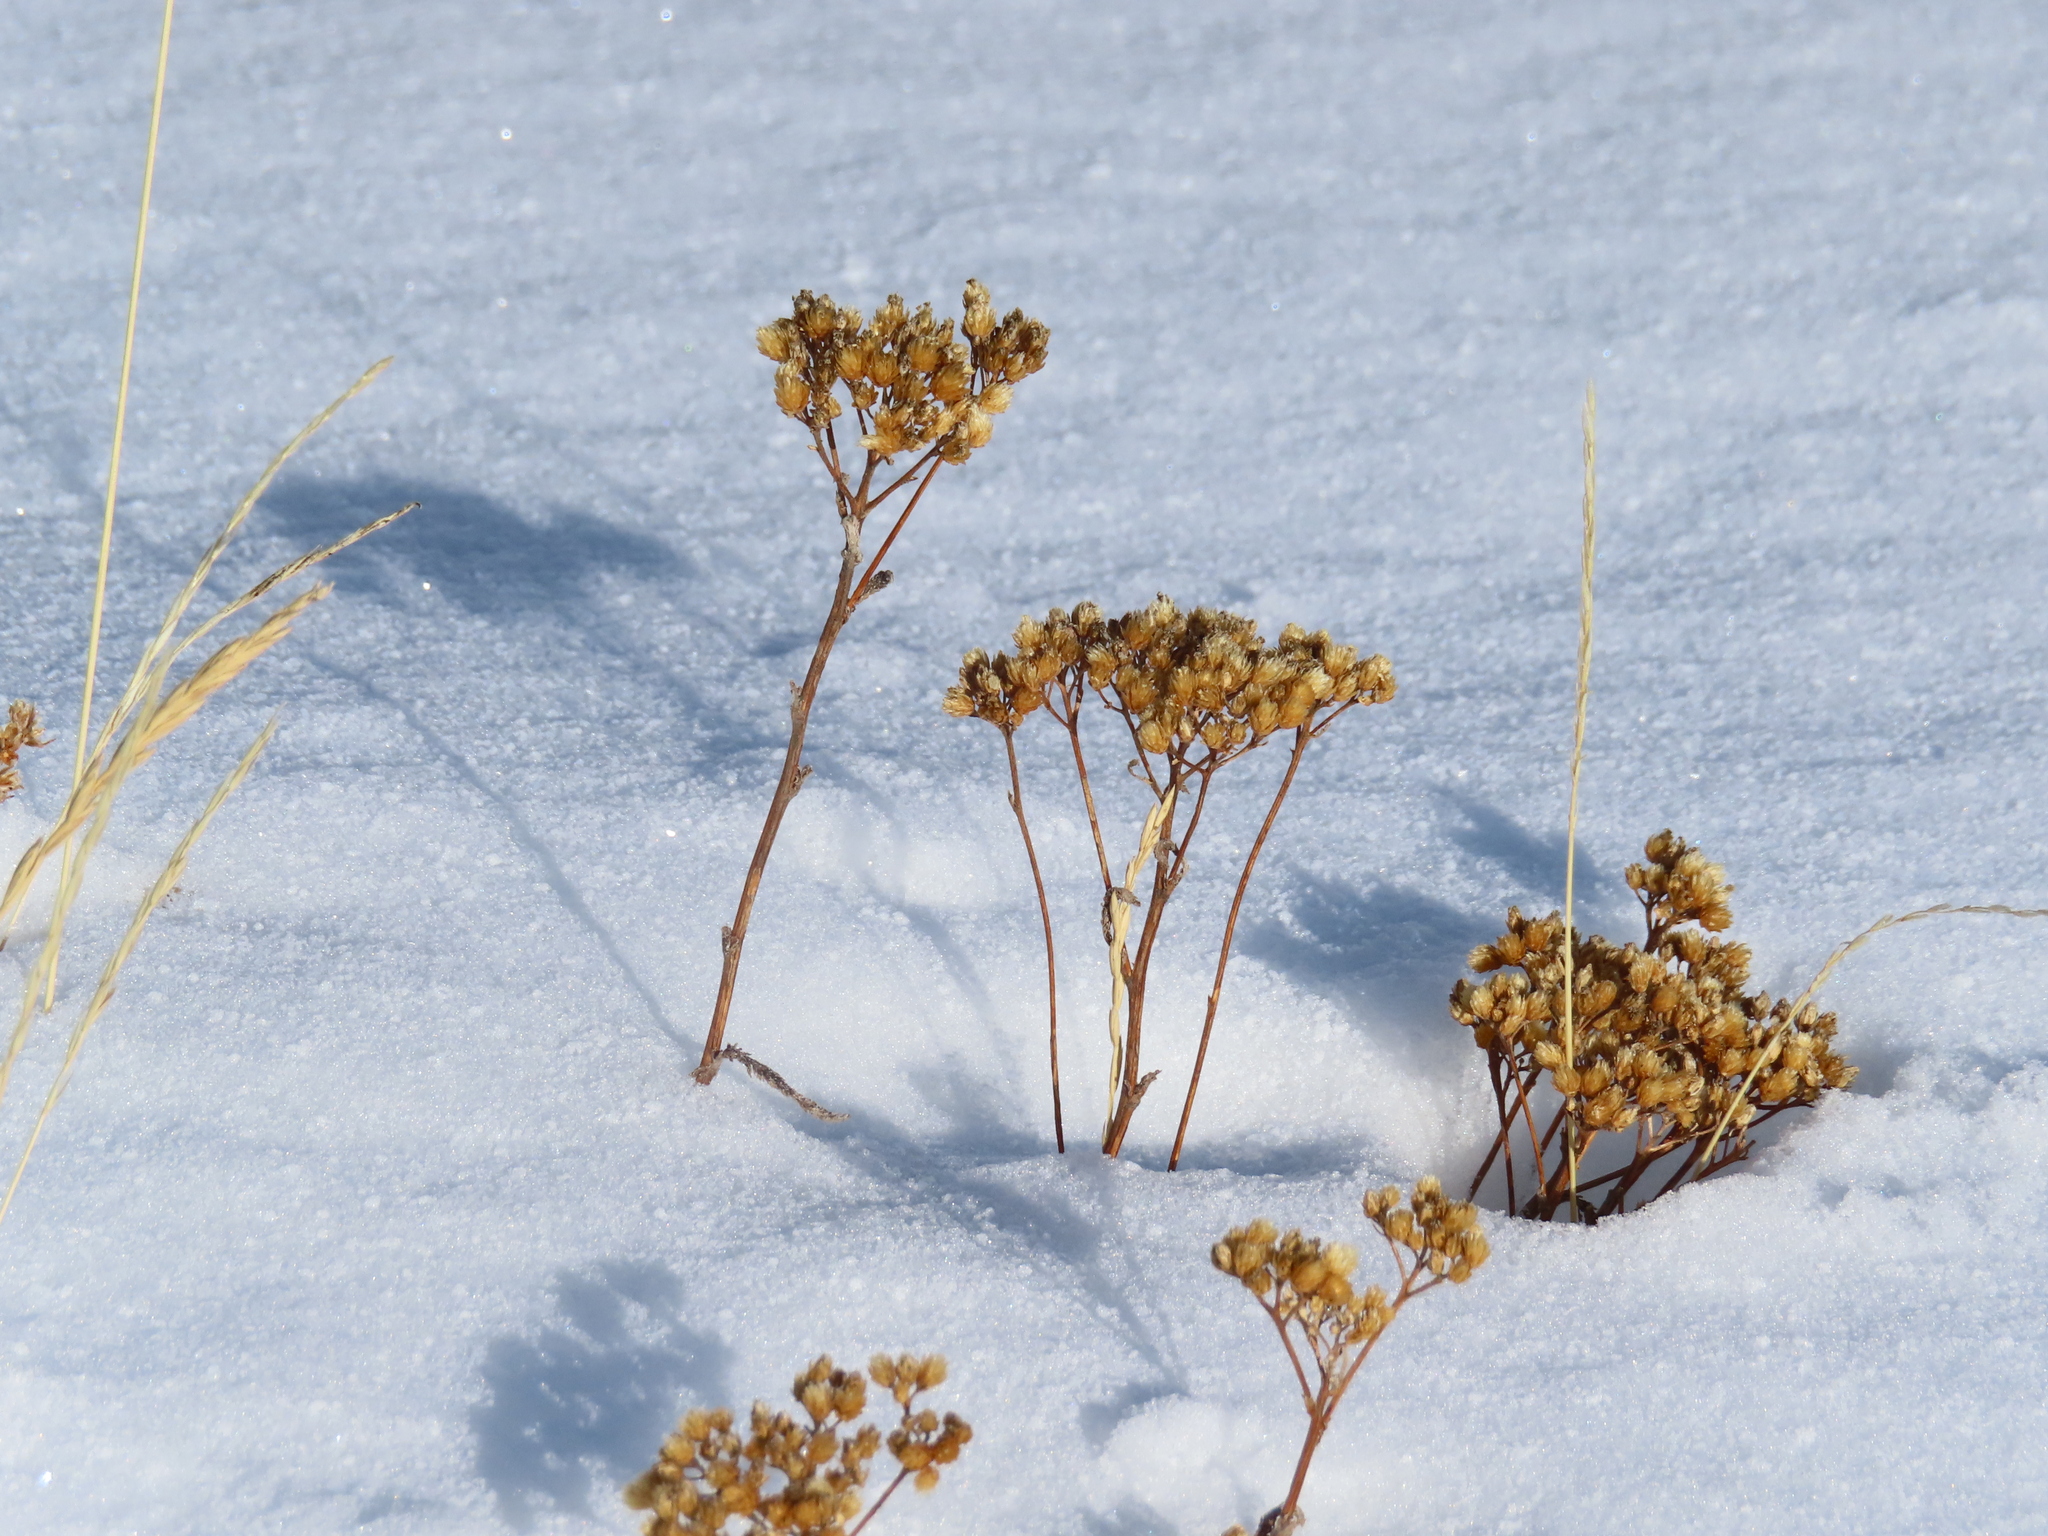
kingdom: Plantae
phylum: Tracheophyta
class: Magnoliopsida
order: Asterales
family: Asteraceae
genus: Achillea
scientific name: Achillea millefolium
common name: Yarrow
